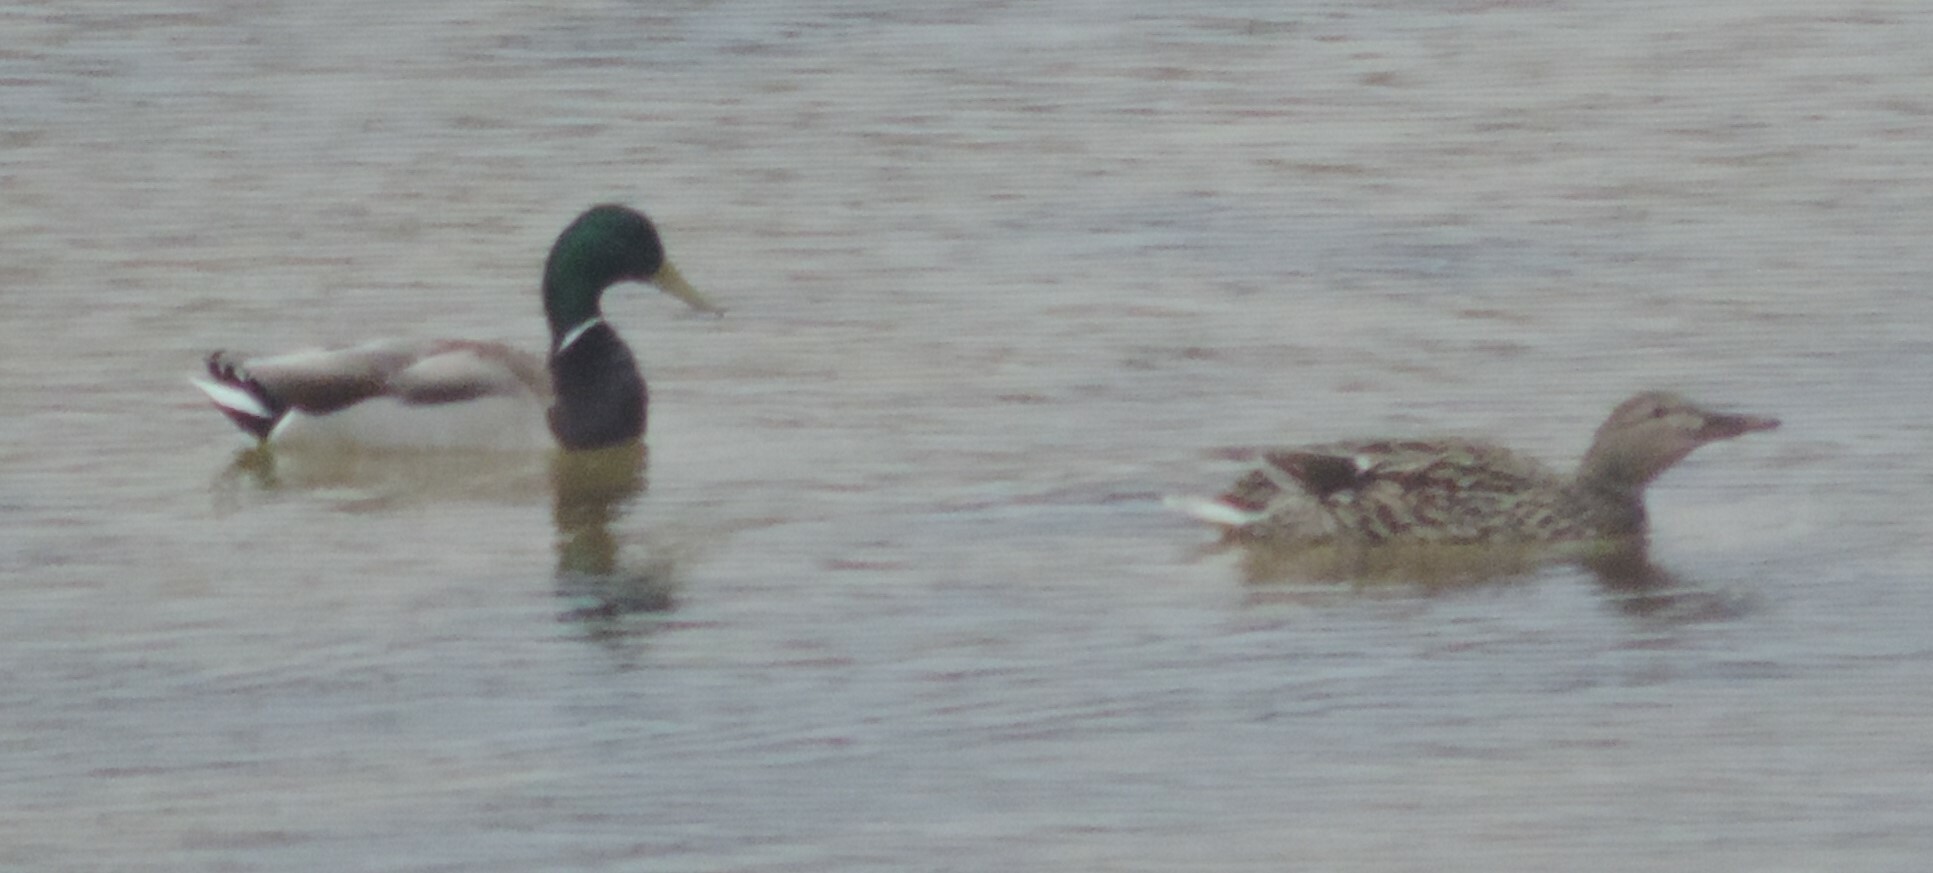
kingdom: Animalia
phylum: Chordata
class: Aves
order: Anseriformes
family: Anatidae
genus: Anas
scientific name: Anas platyrhynchos
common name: Mallard
